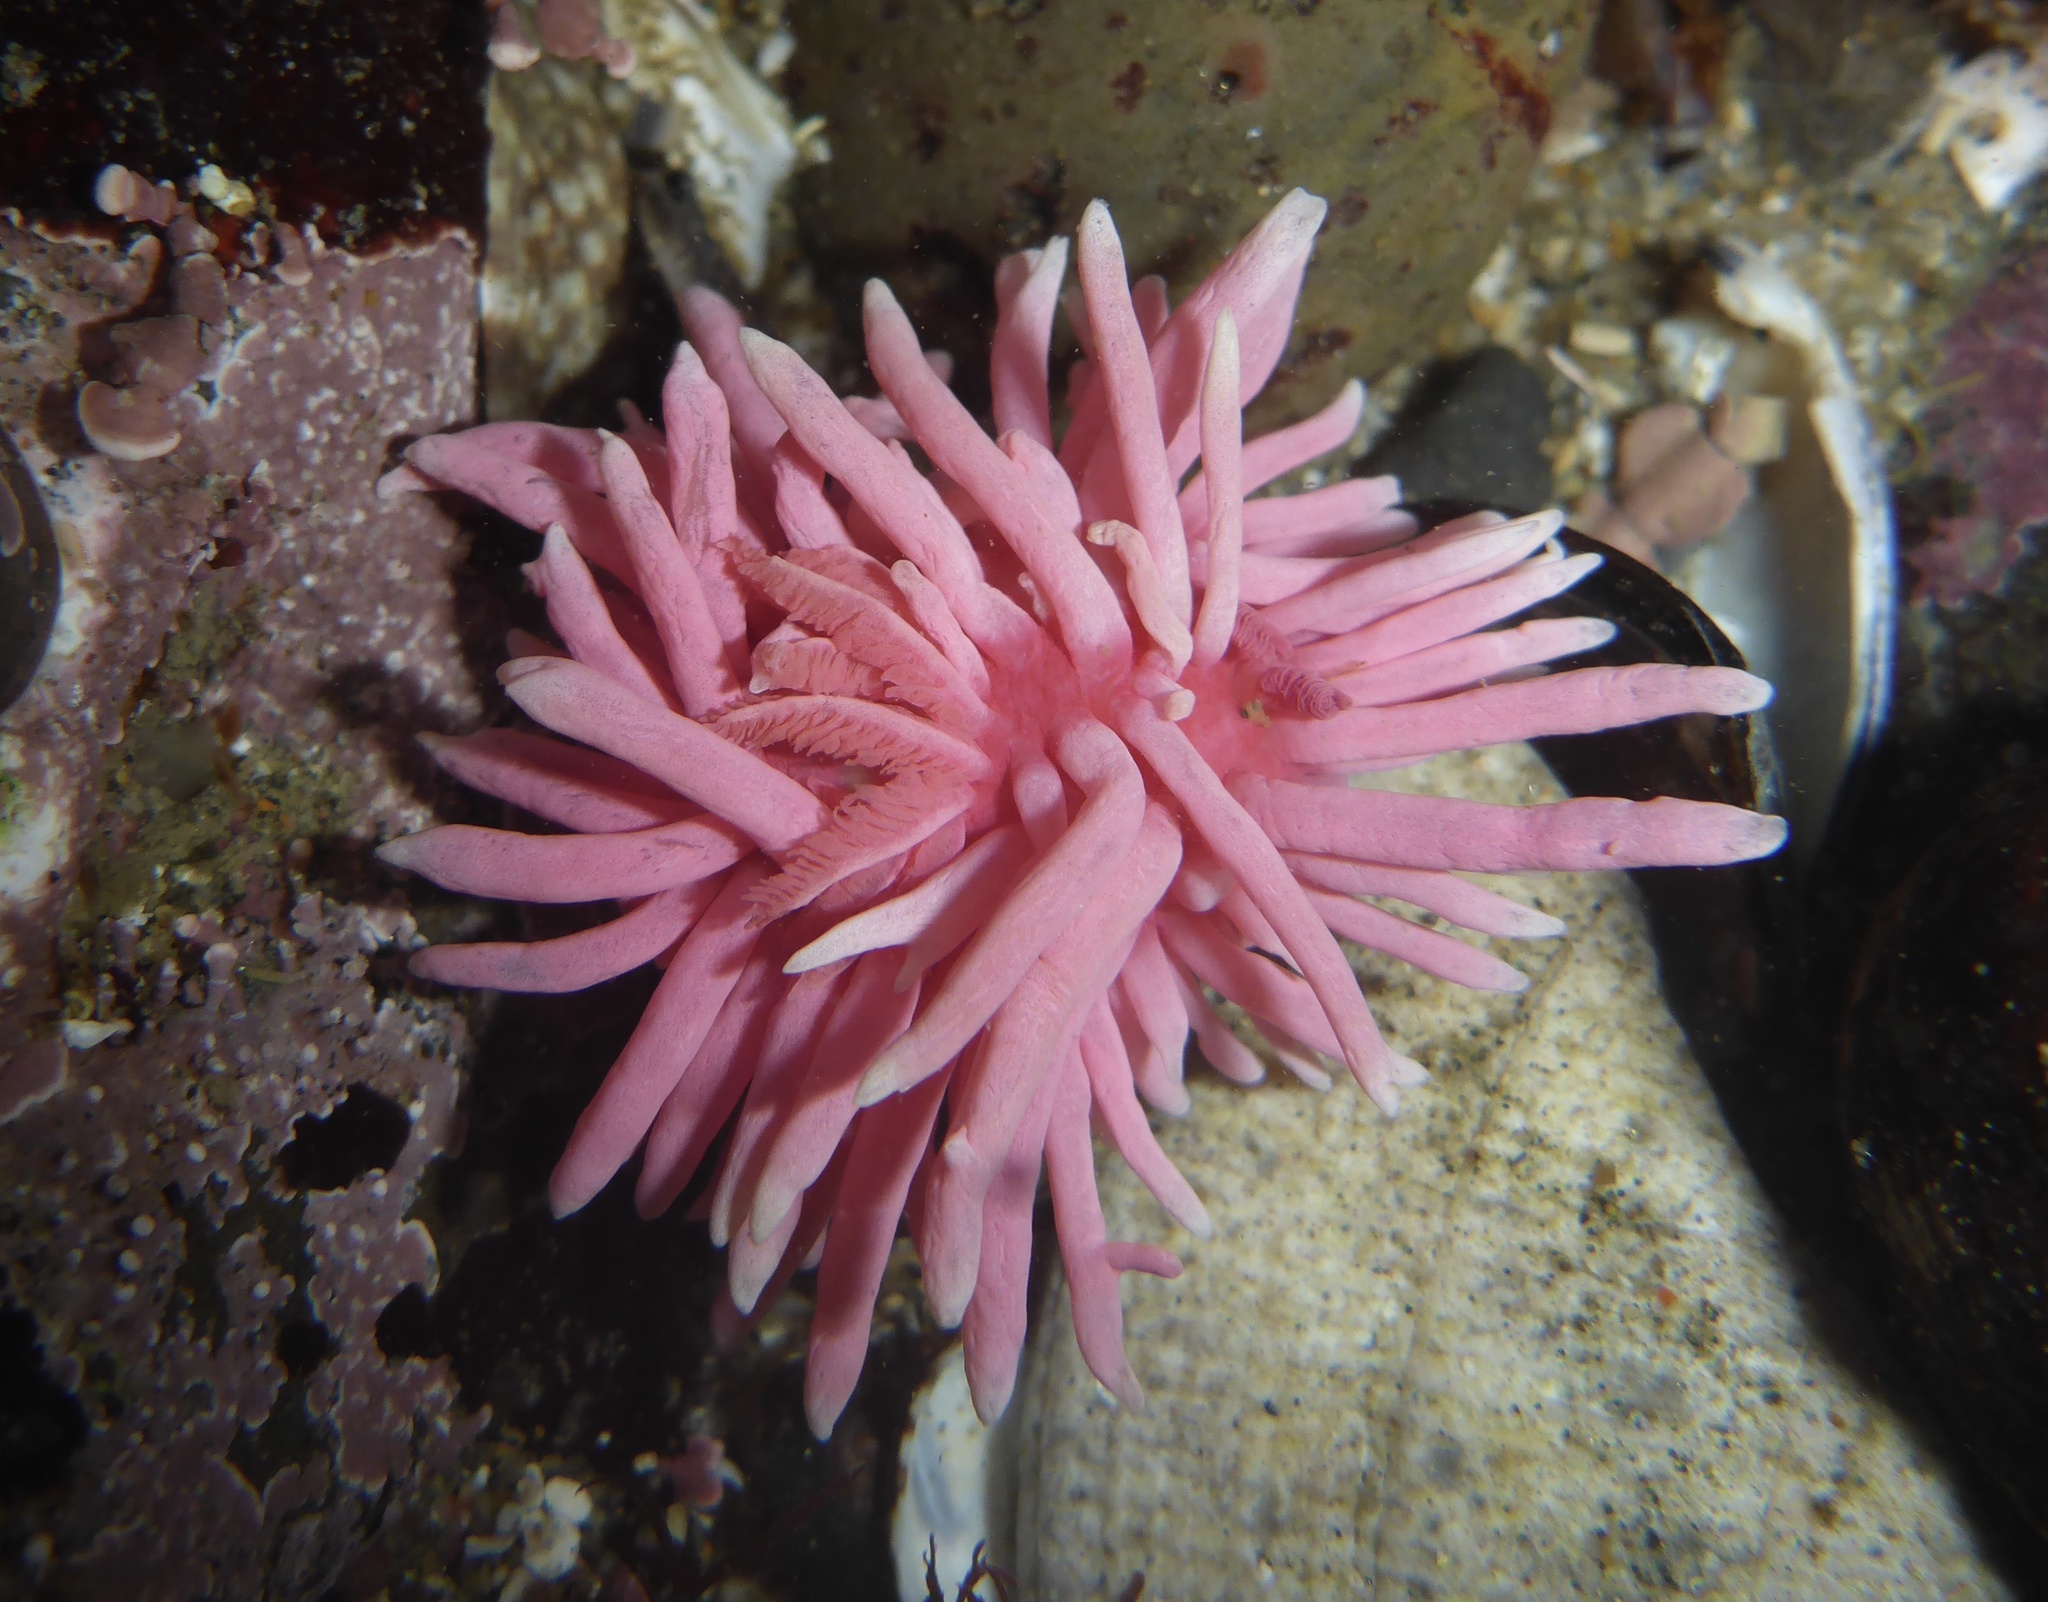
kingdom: Animalia
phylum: Mollusca
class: Gastropoda
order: Nudibranchia
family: Goniodorididae
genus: Okenia
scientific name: Okenia
